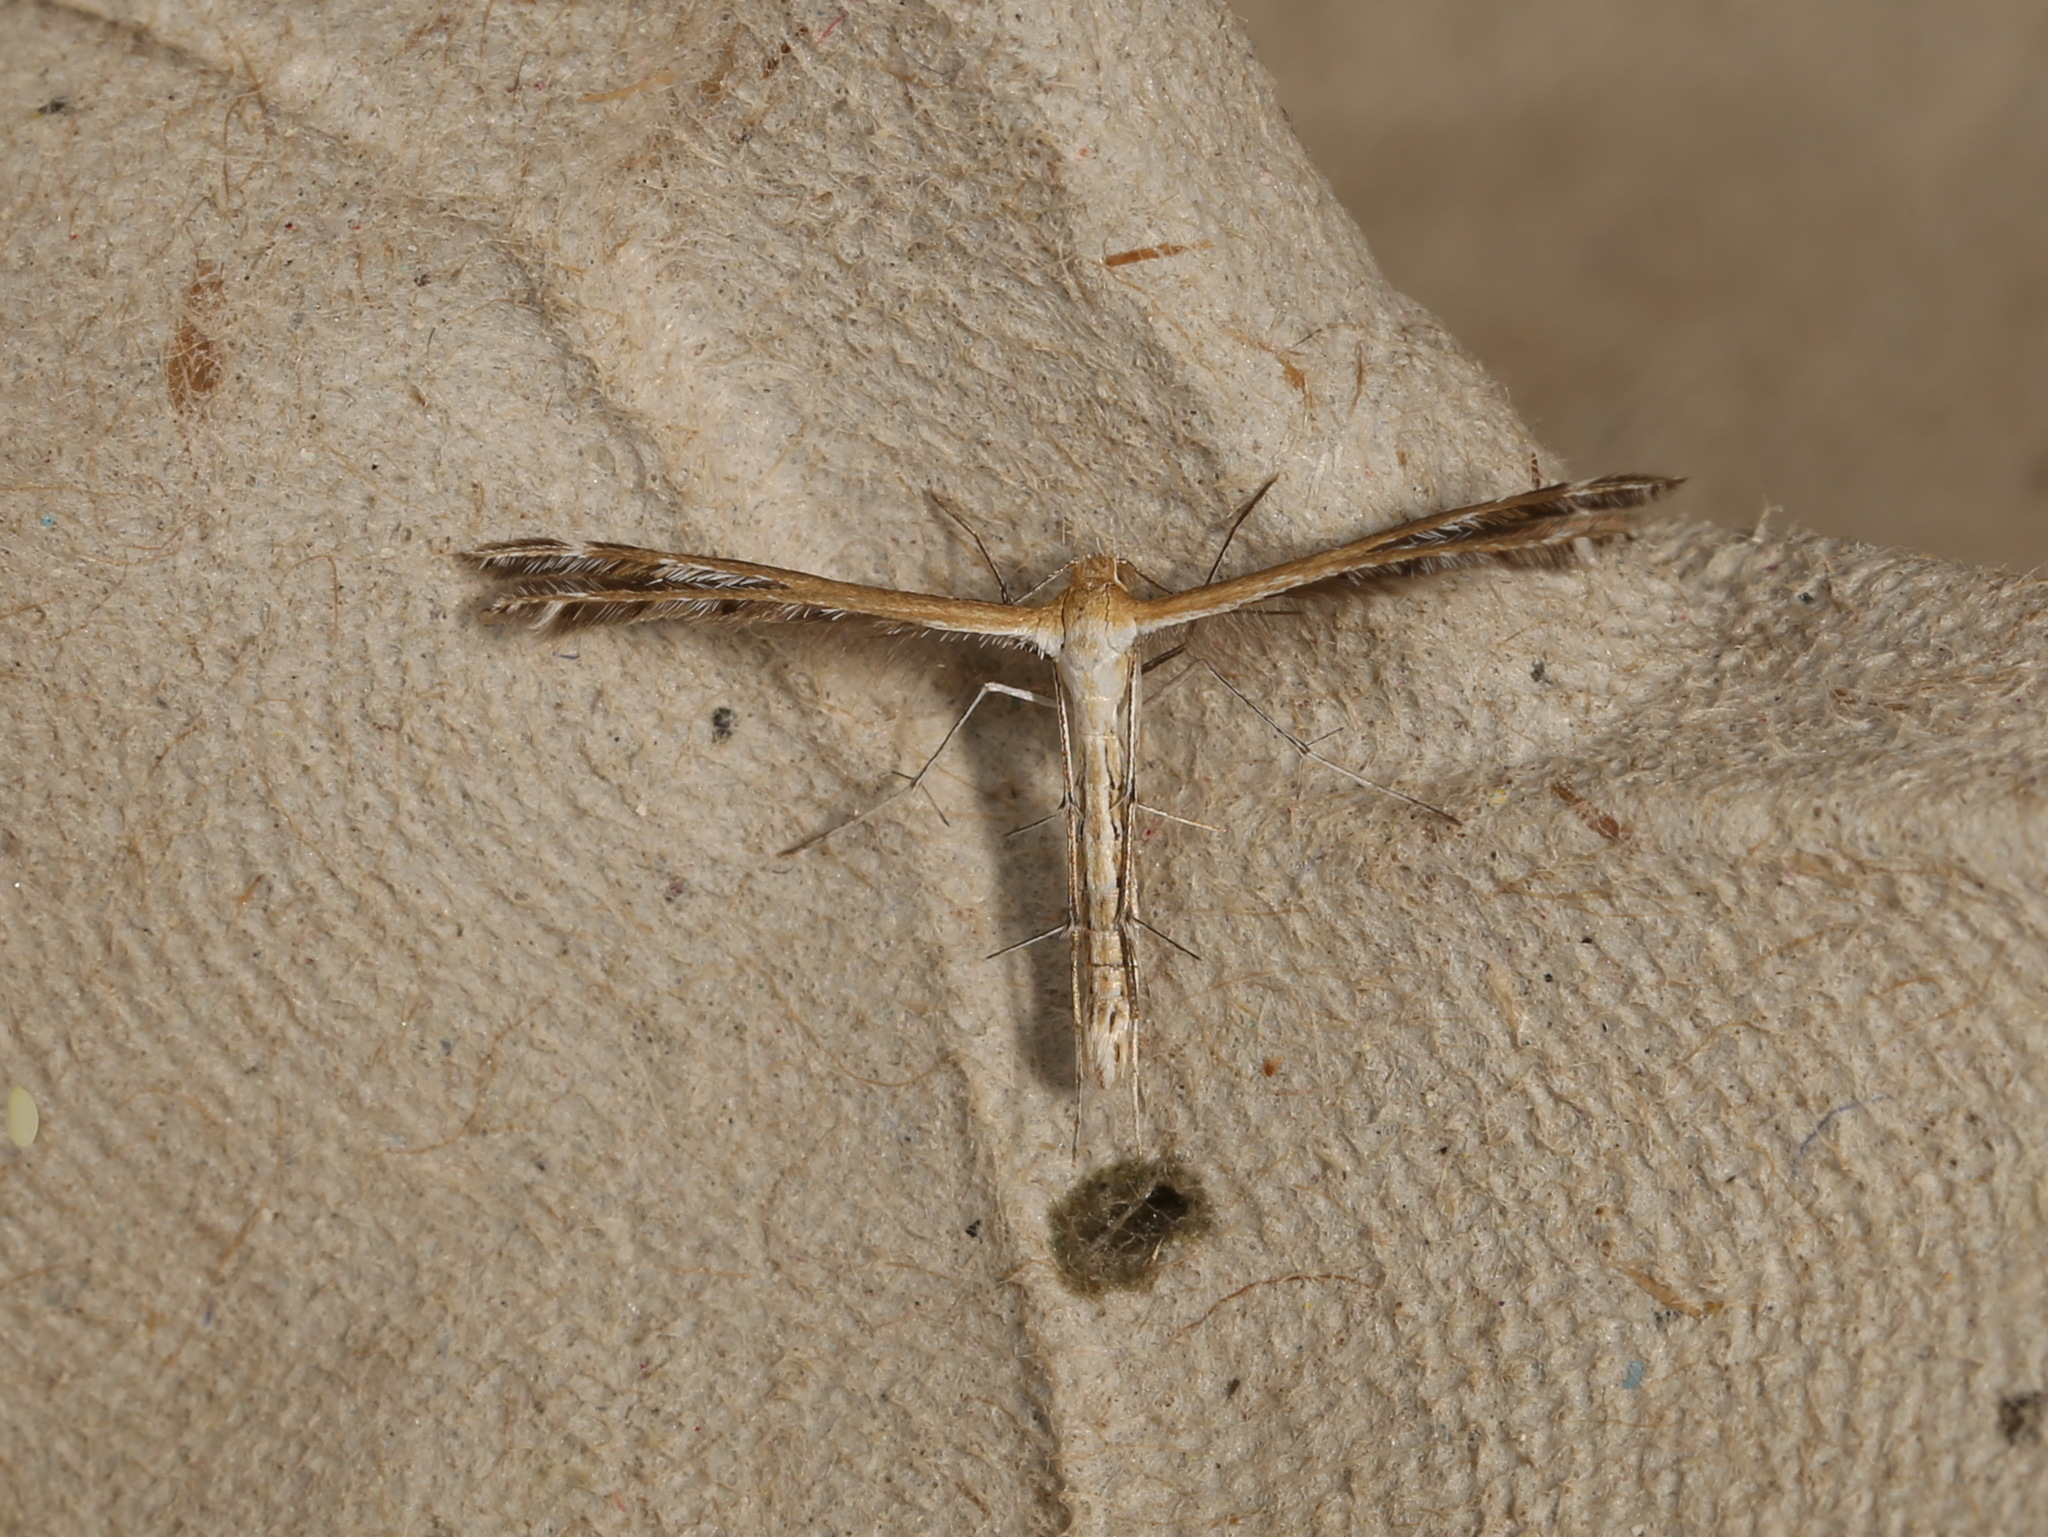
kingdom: Animalia
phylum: Arthropoda
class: Insecta
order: Lepidoptera
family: Pterophoridae
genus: Stangeia
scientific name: Stangeia xerodes
